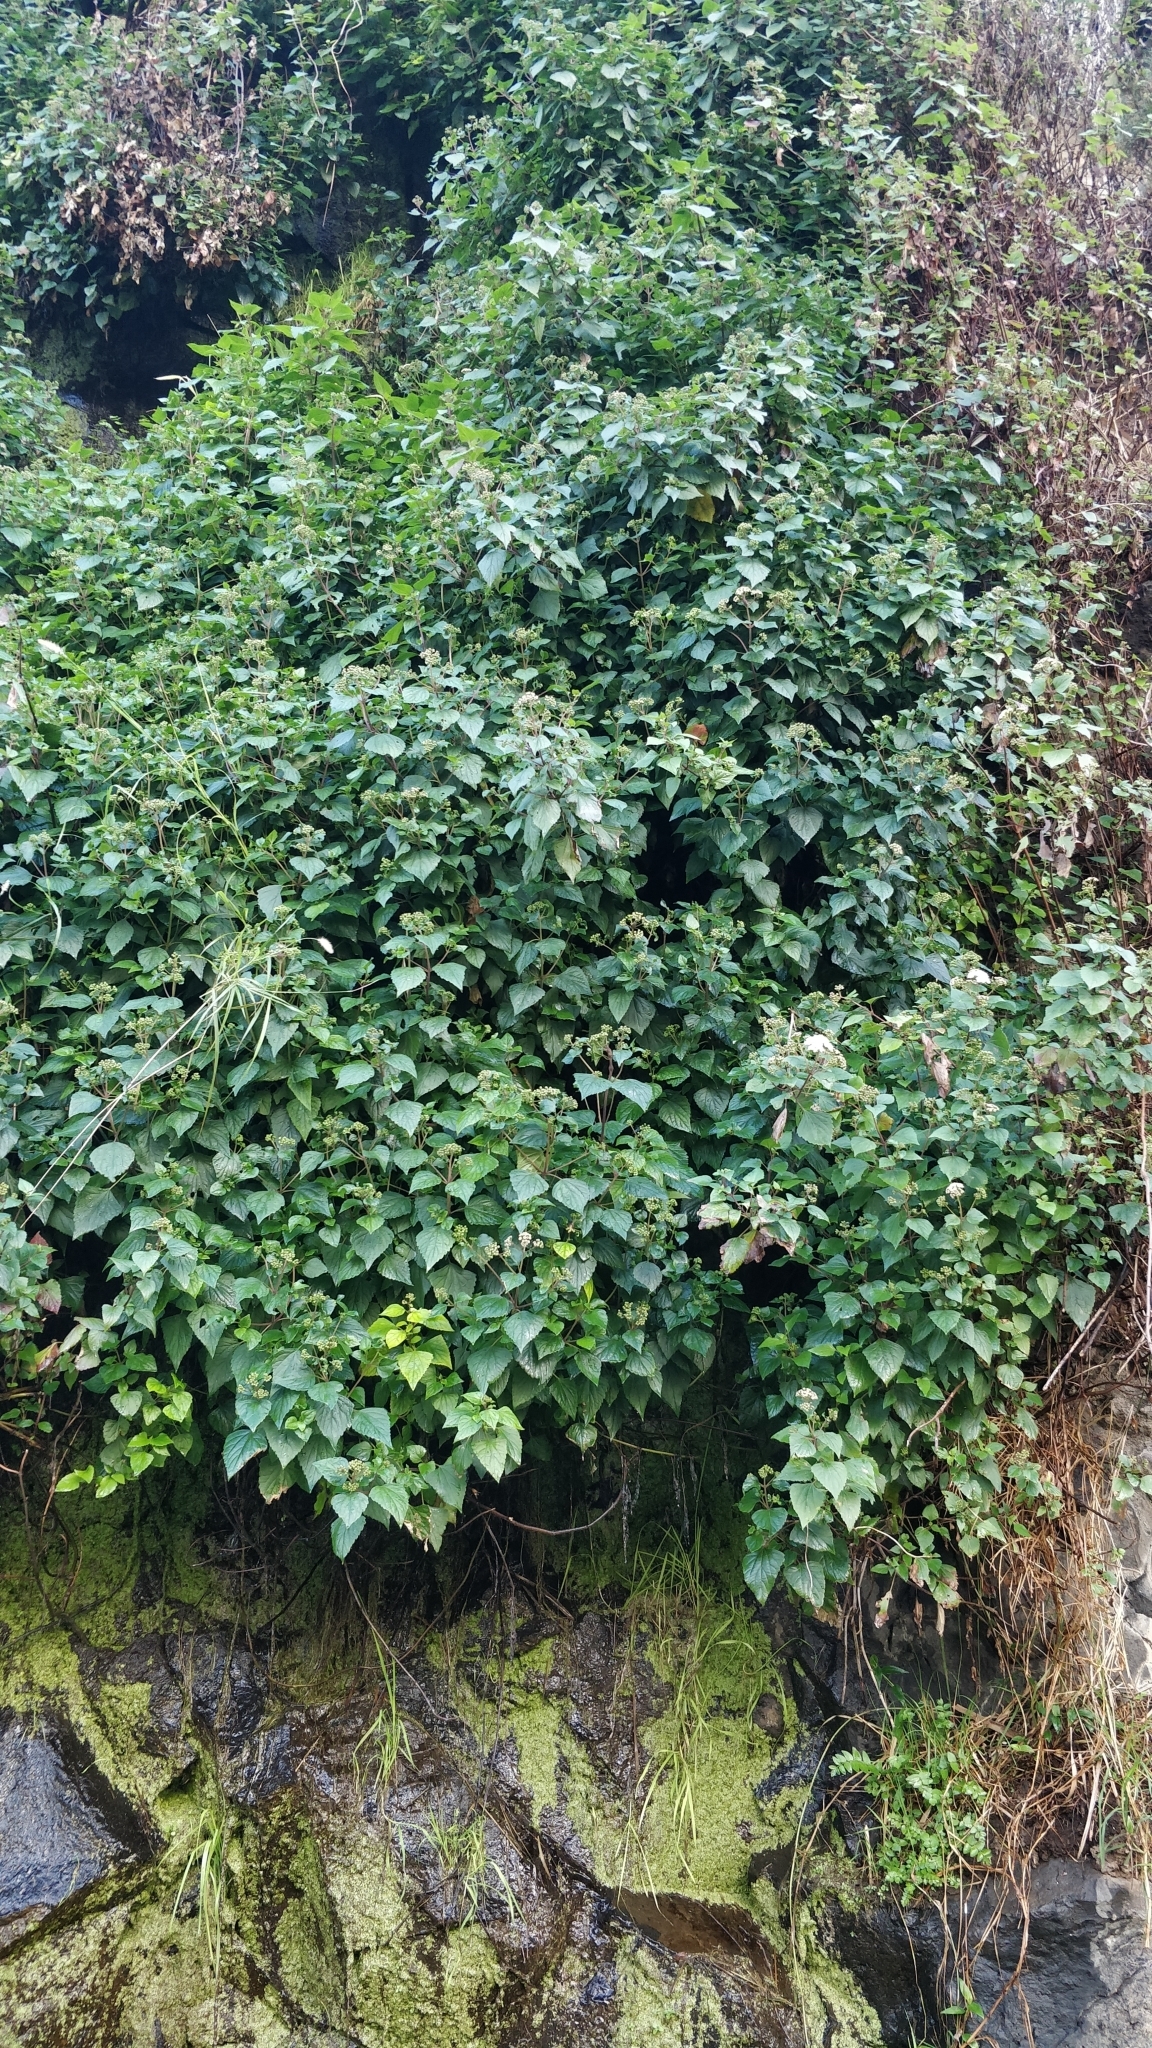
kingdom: Plantae
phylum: Tracheophyta
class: Magnoliopsida
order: Asterales
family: Asteraceae
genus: Ageratina
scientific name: Ageratina adenophora
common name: Sticky snakeroot
